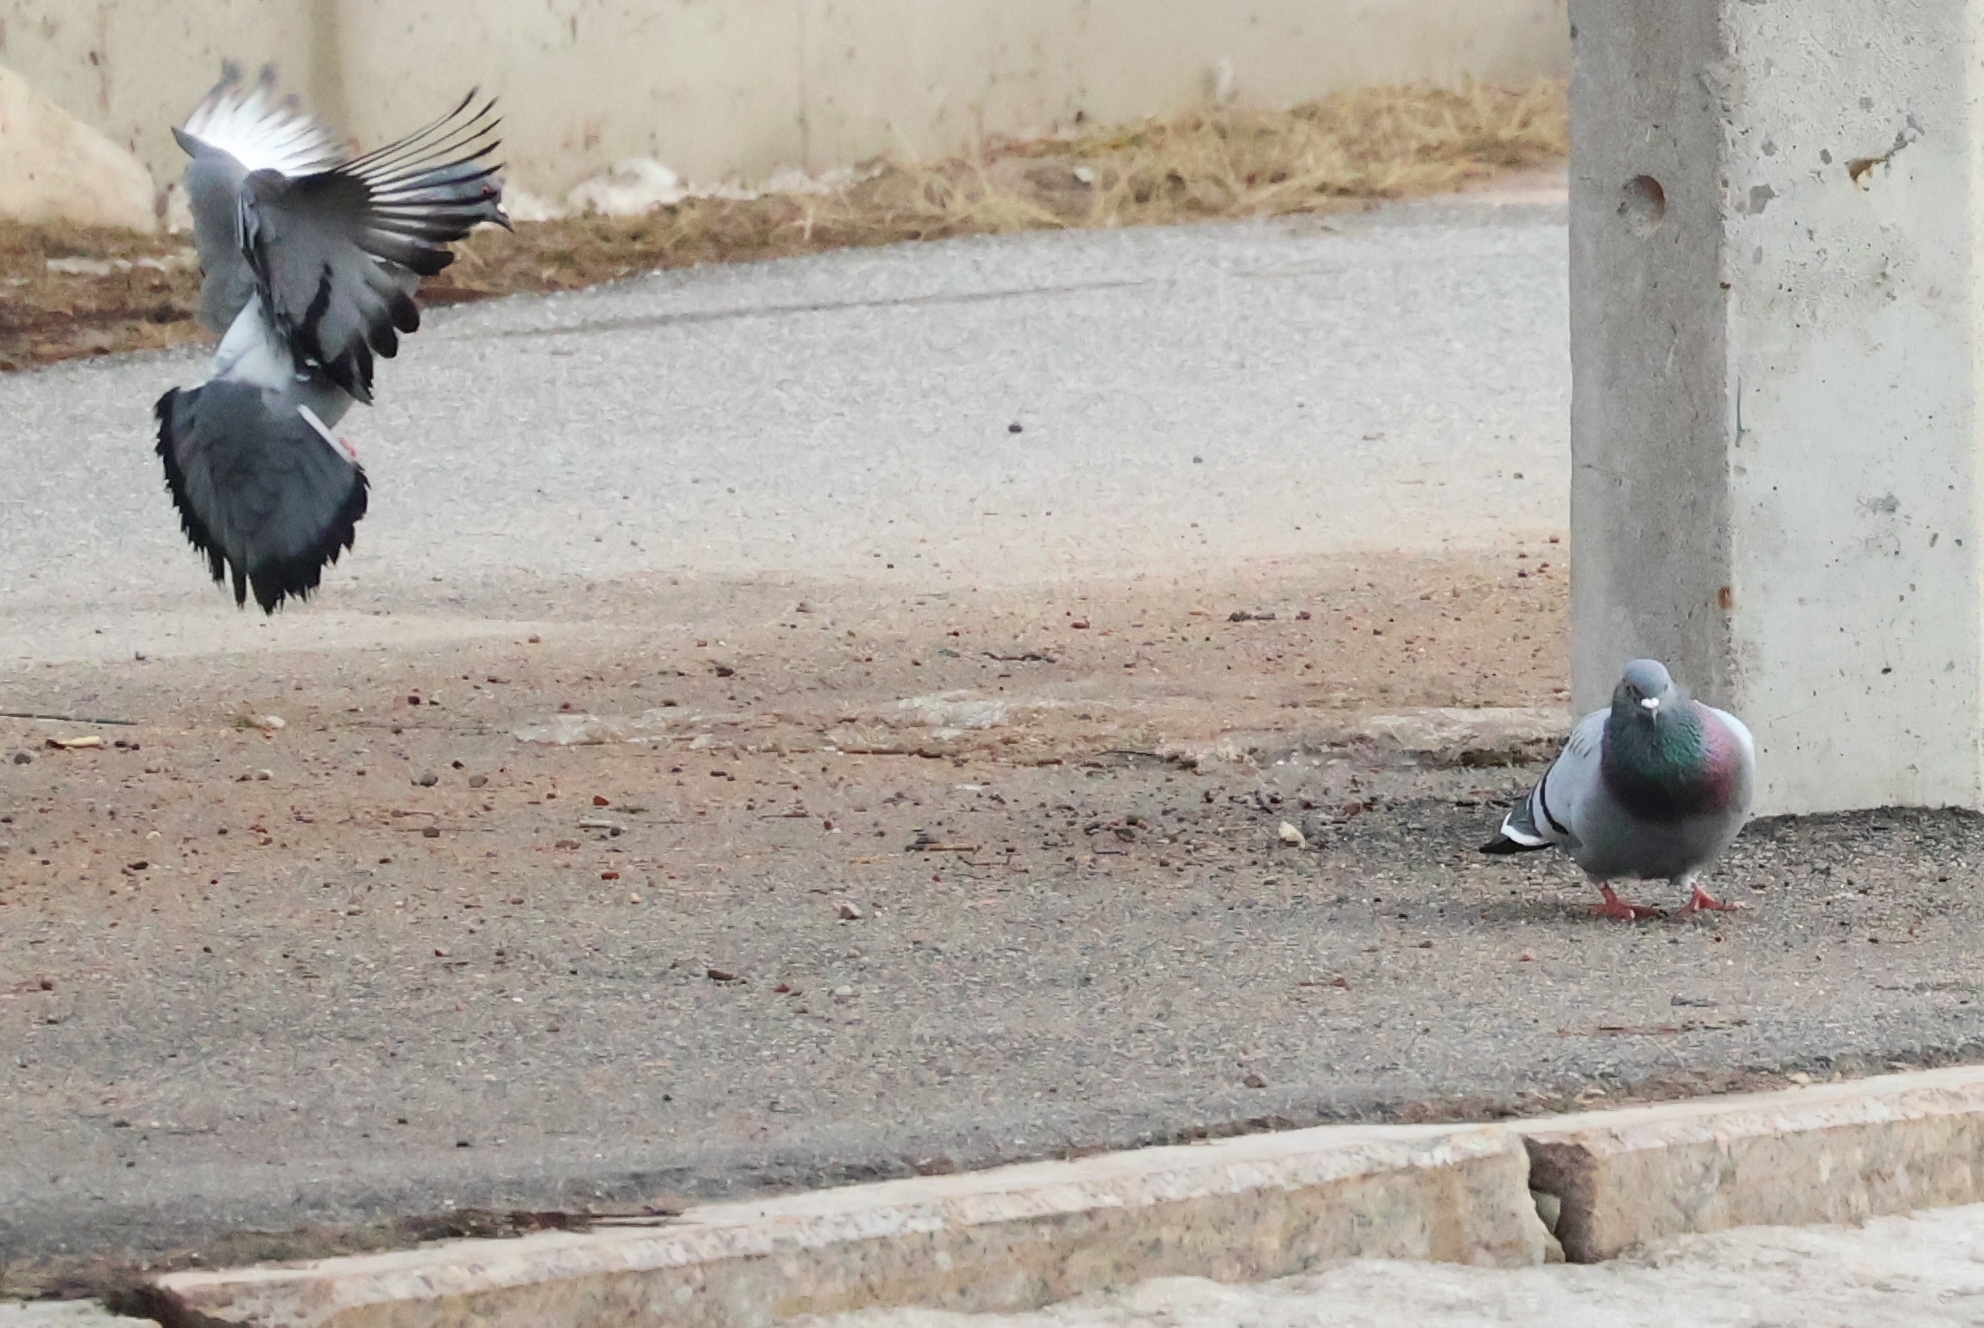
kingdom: Animalia
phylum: Chordata
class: Aves
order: Columbiformes
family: Columbidae
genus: Columba
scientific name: Columba livia
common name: Rock pigeon
